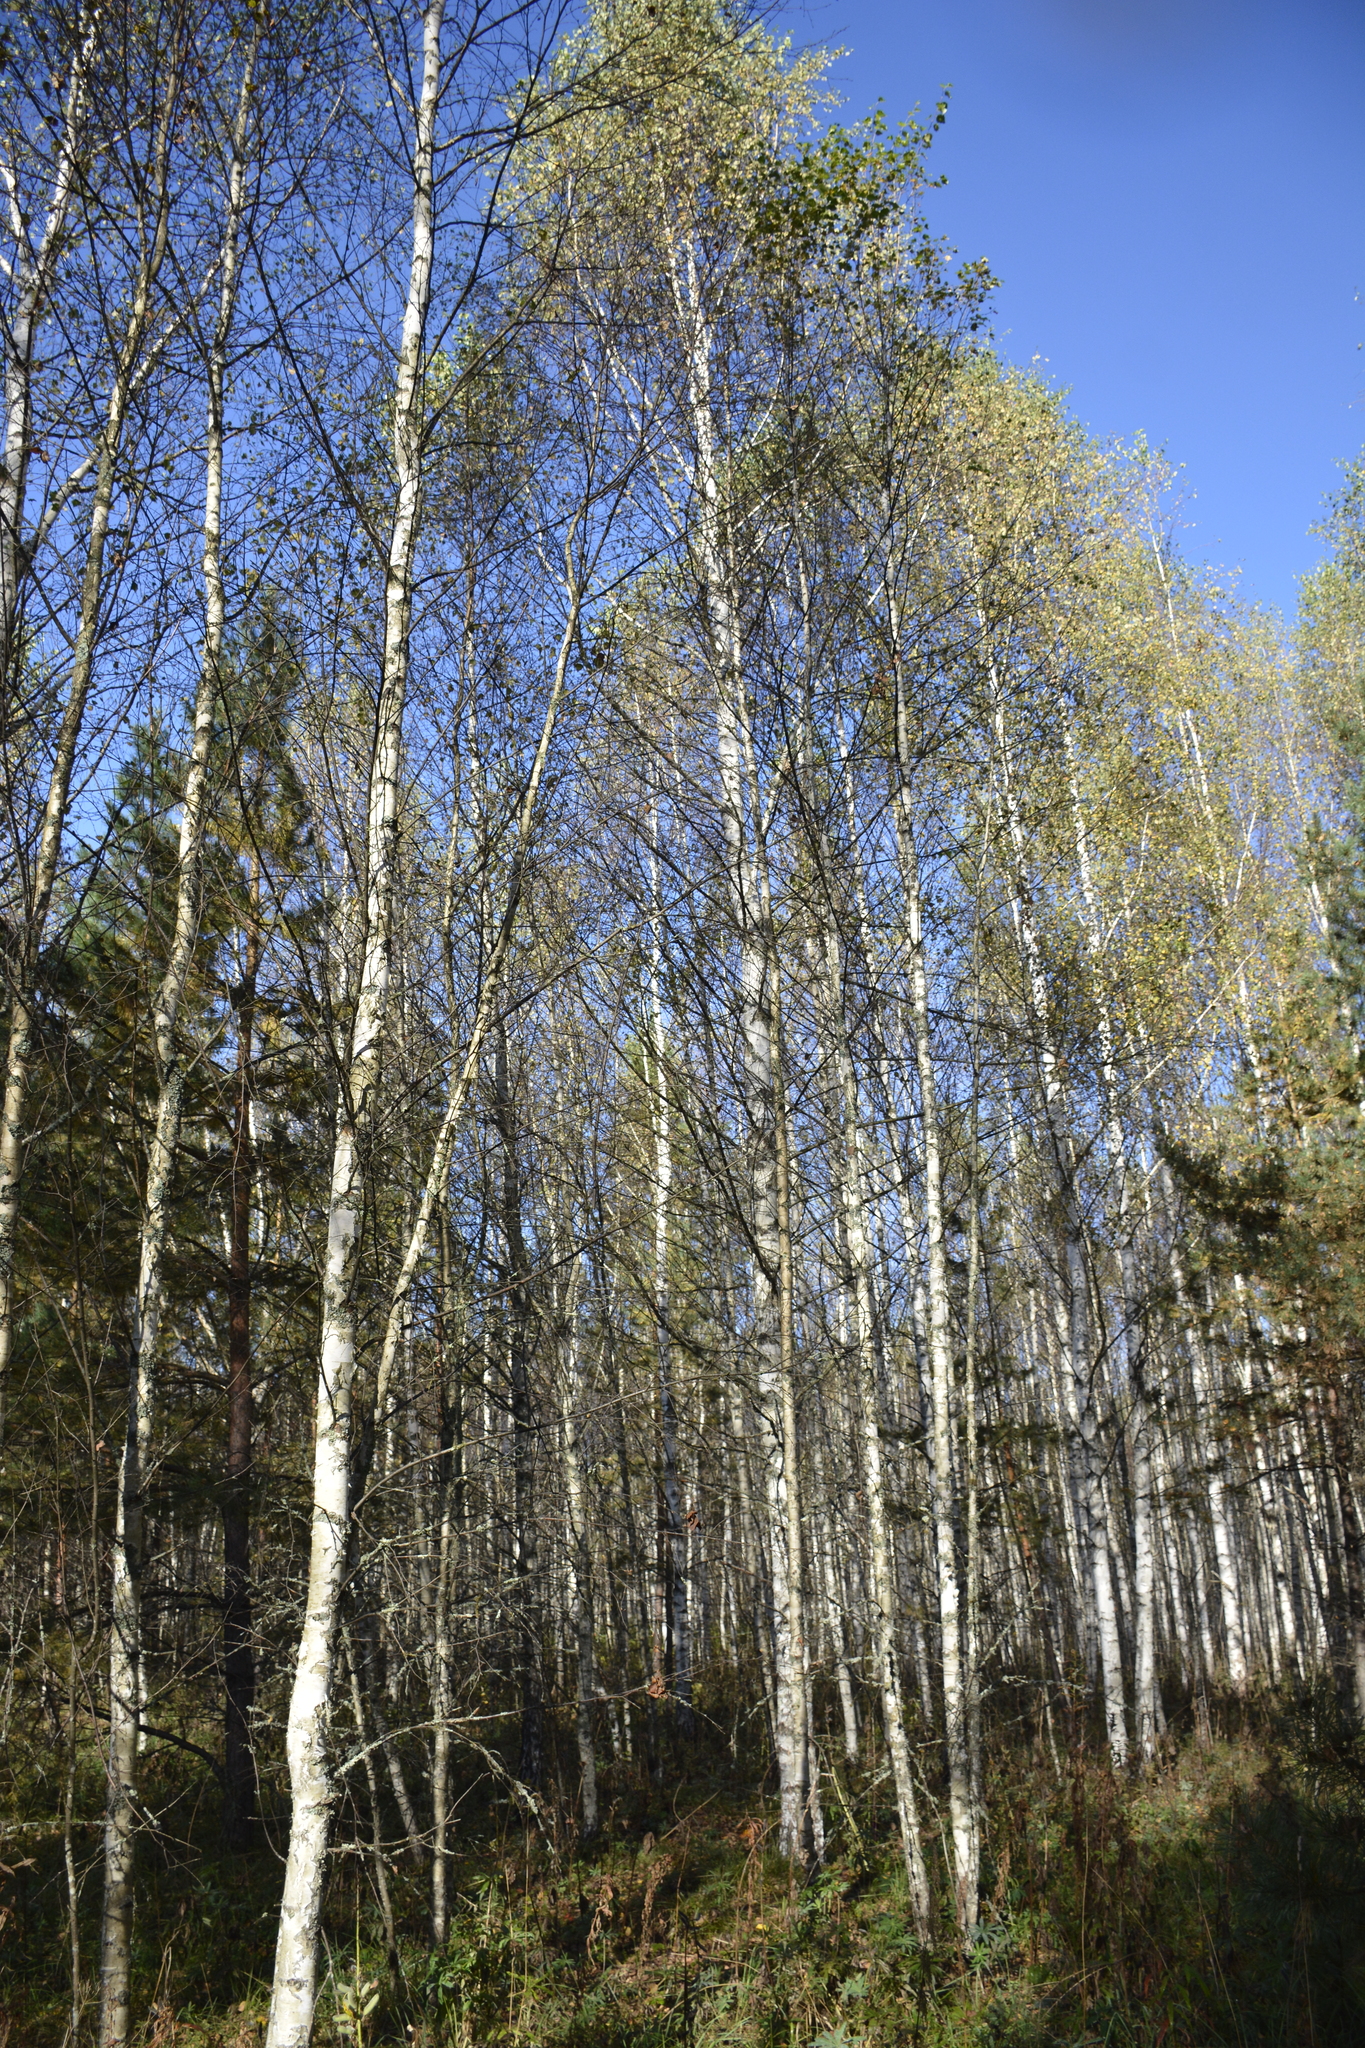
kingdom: Plantae
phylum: Tracheophyta
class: Magnoliopsida
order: Fagales
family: Betulaceae
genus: Betula
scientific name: Betula pendula
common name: Silver birch
